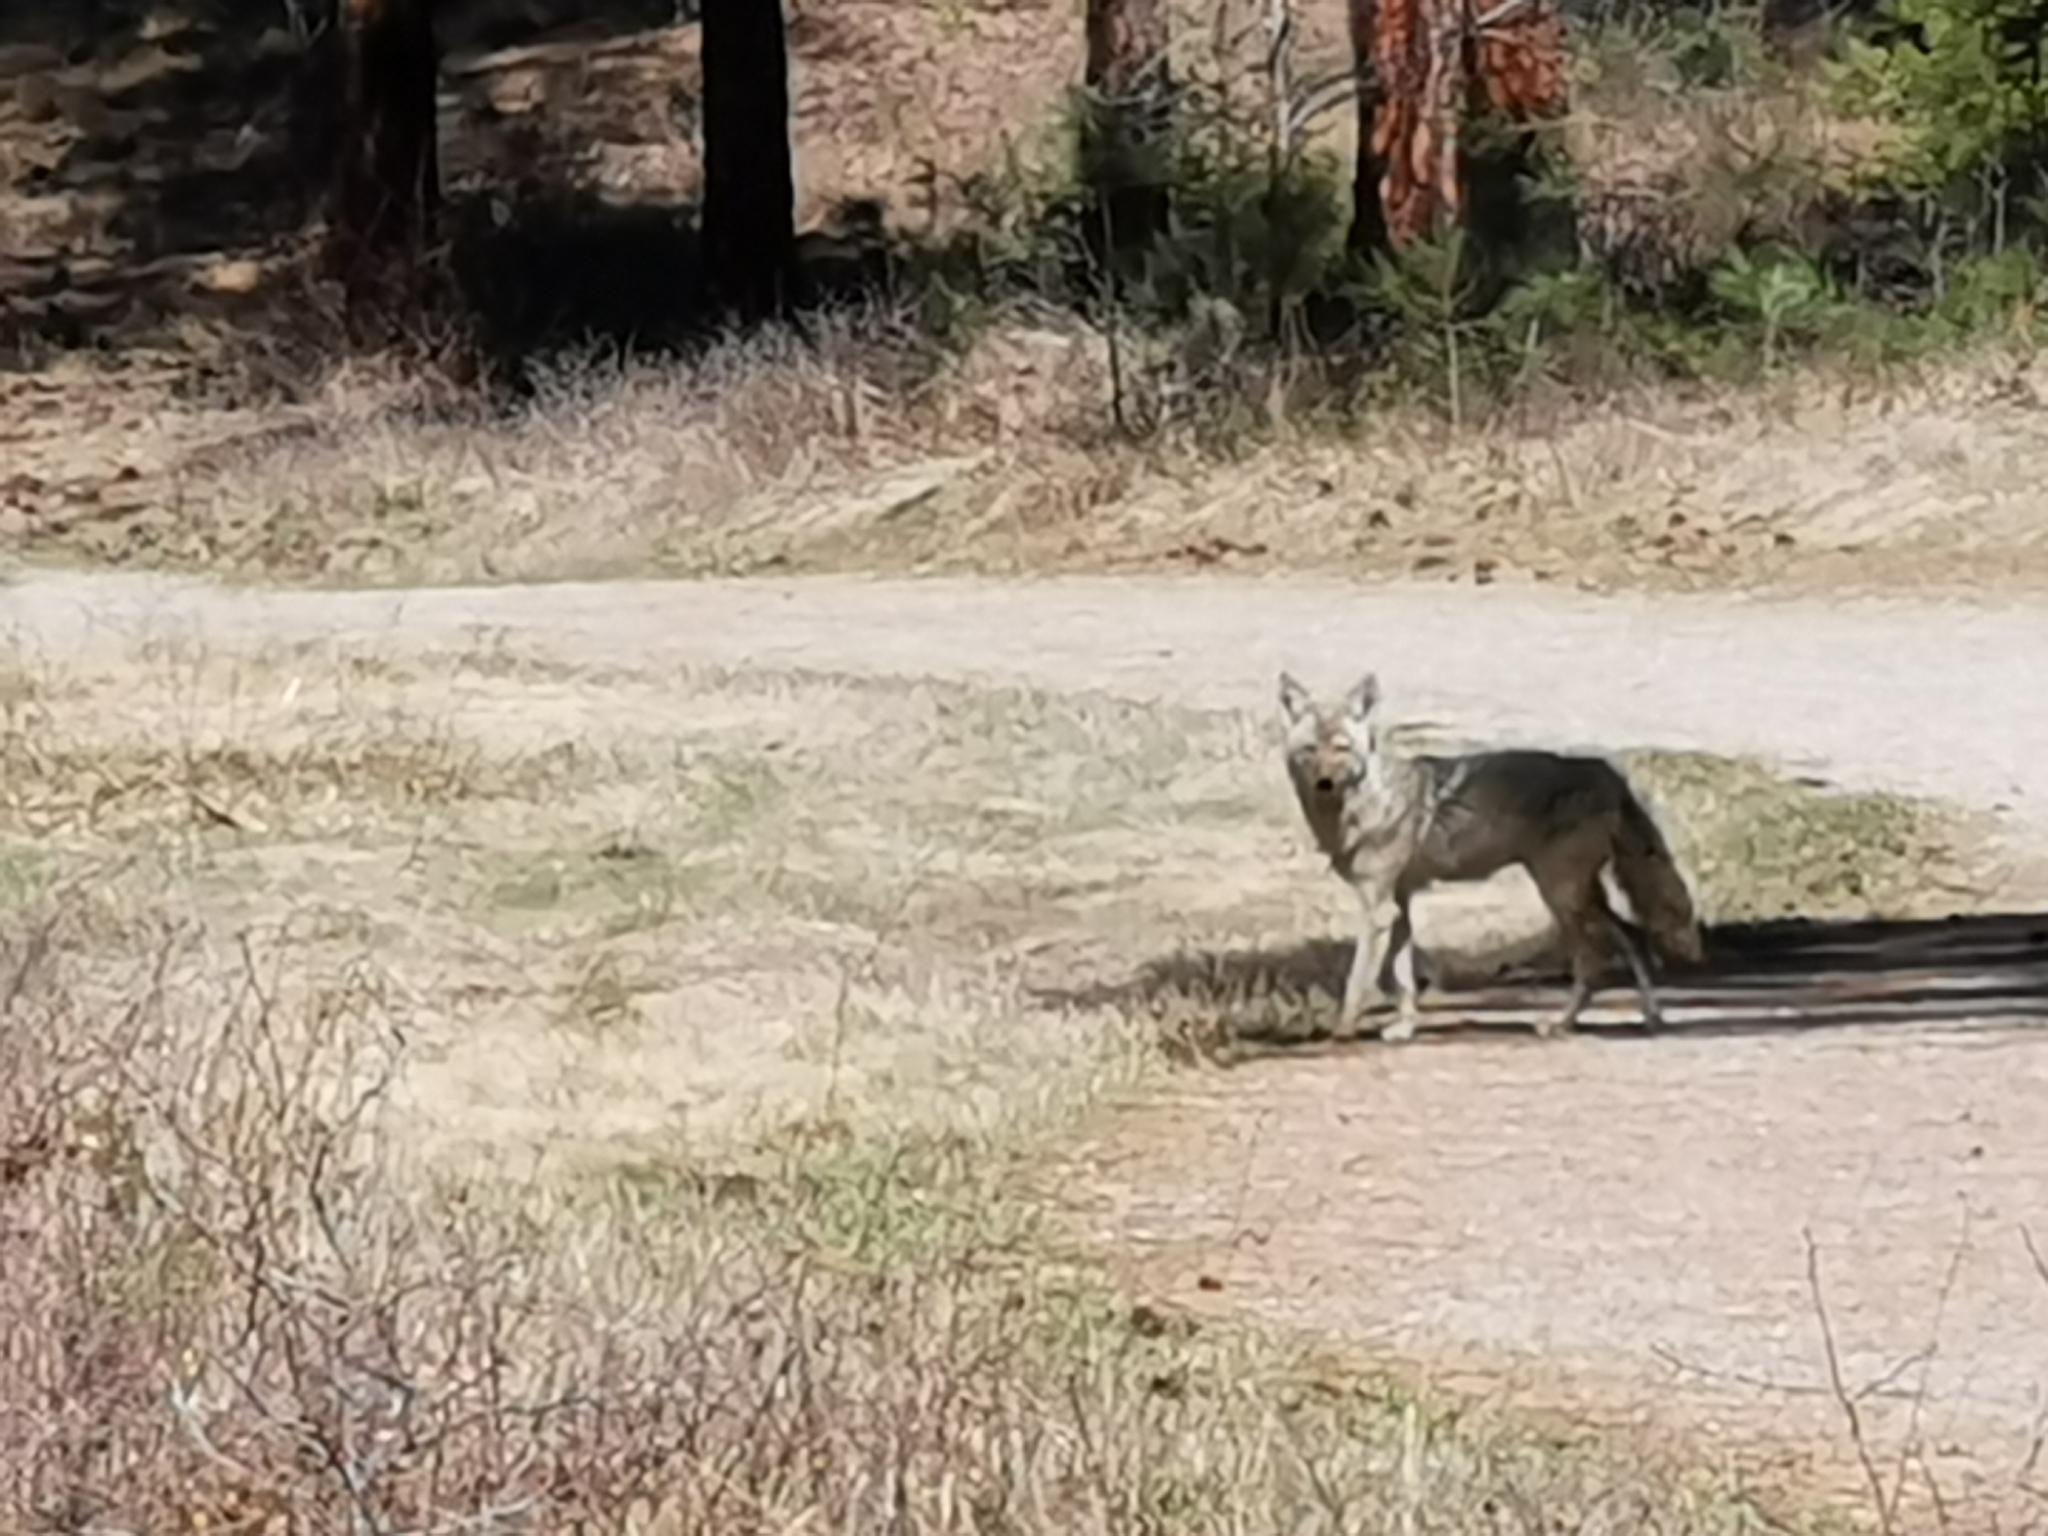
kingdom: Animalia
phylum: Chordata
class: Mammalia
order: Carnivora
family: Canidae
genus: Canis
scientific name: Canis latrans
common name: Coyote
